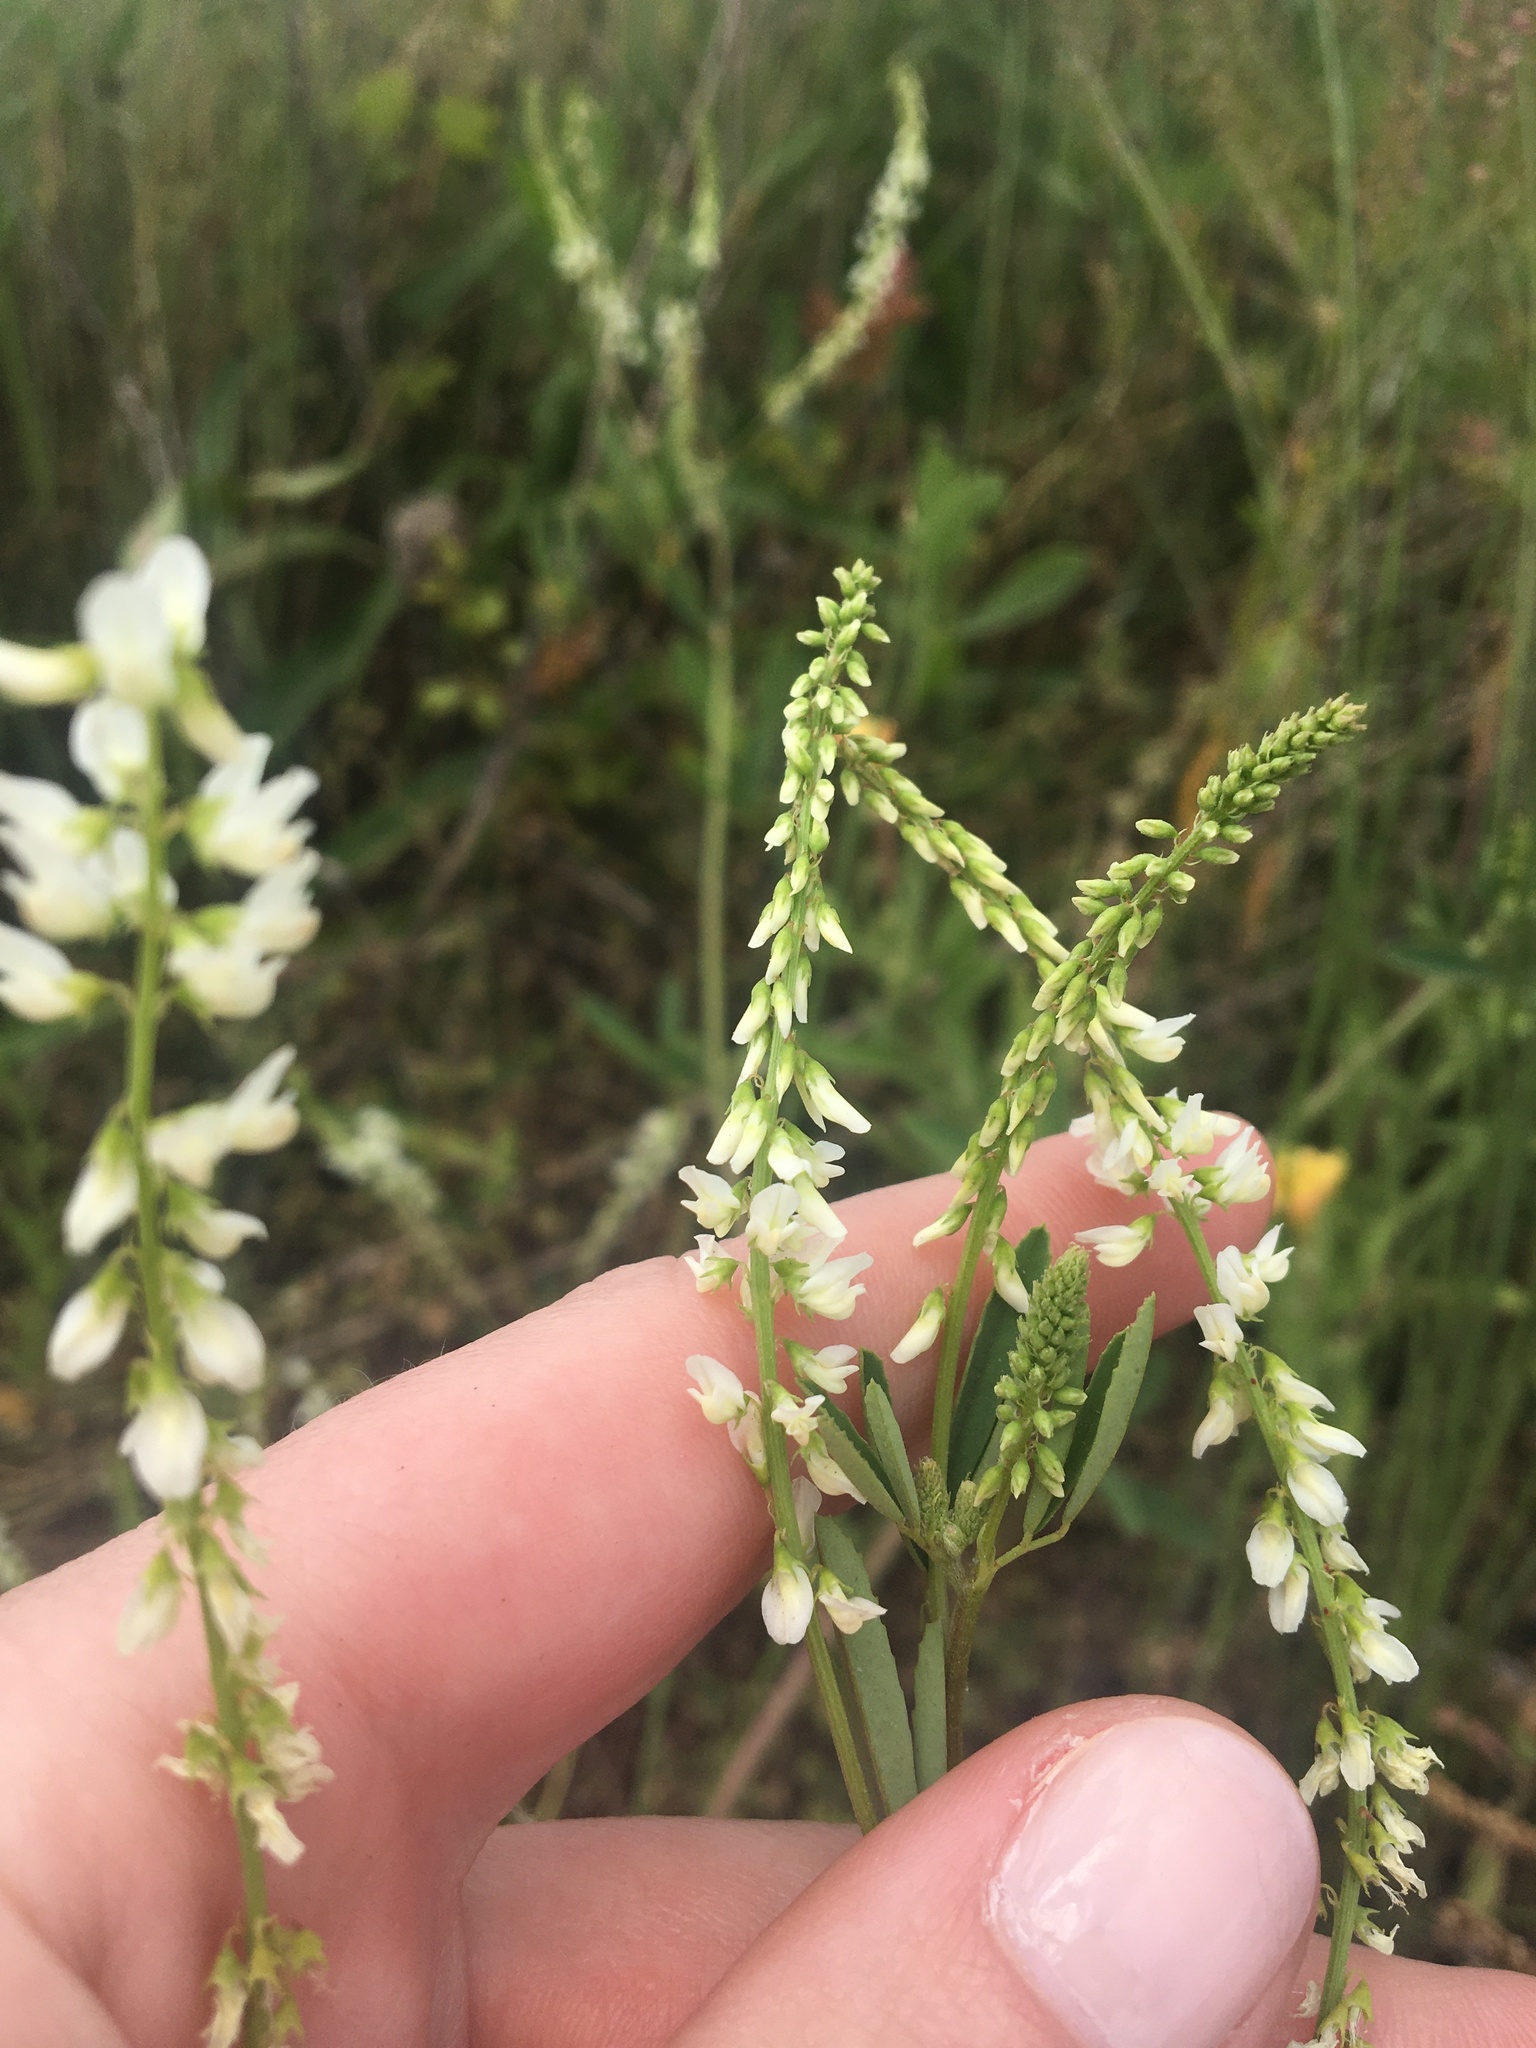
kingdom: Plantae
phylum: Tracheophyta
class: Magnoliopsida
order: Fabales
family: Fabaceae
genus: Melilotus
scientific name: Melilotus albus
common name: White melilot
